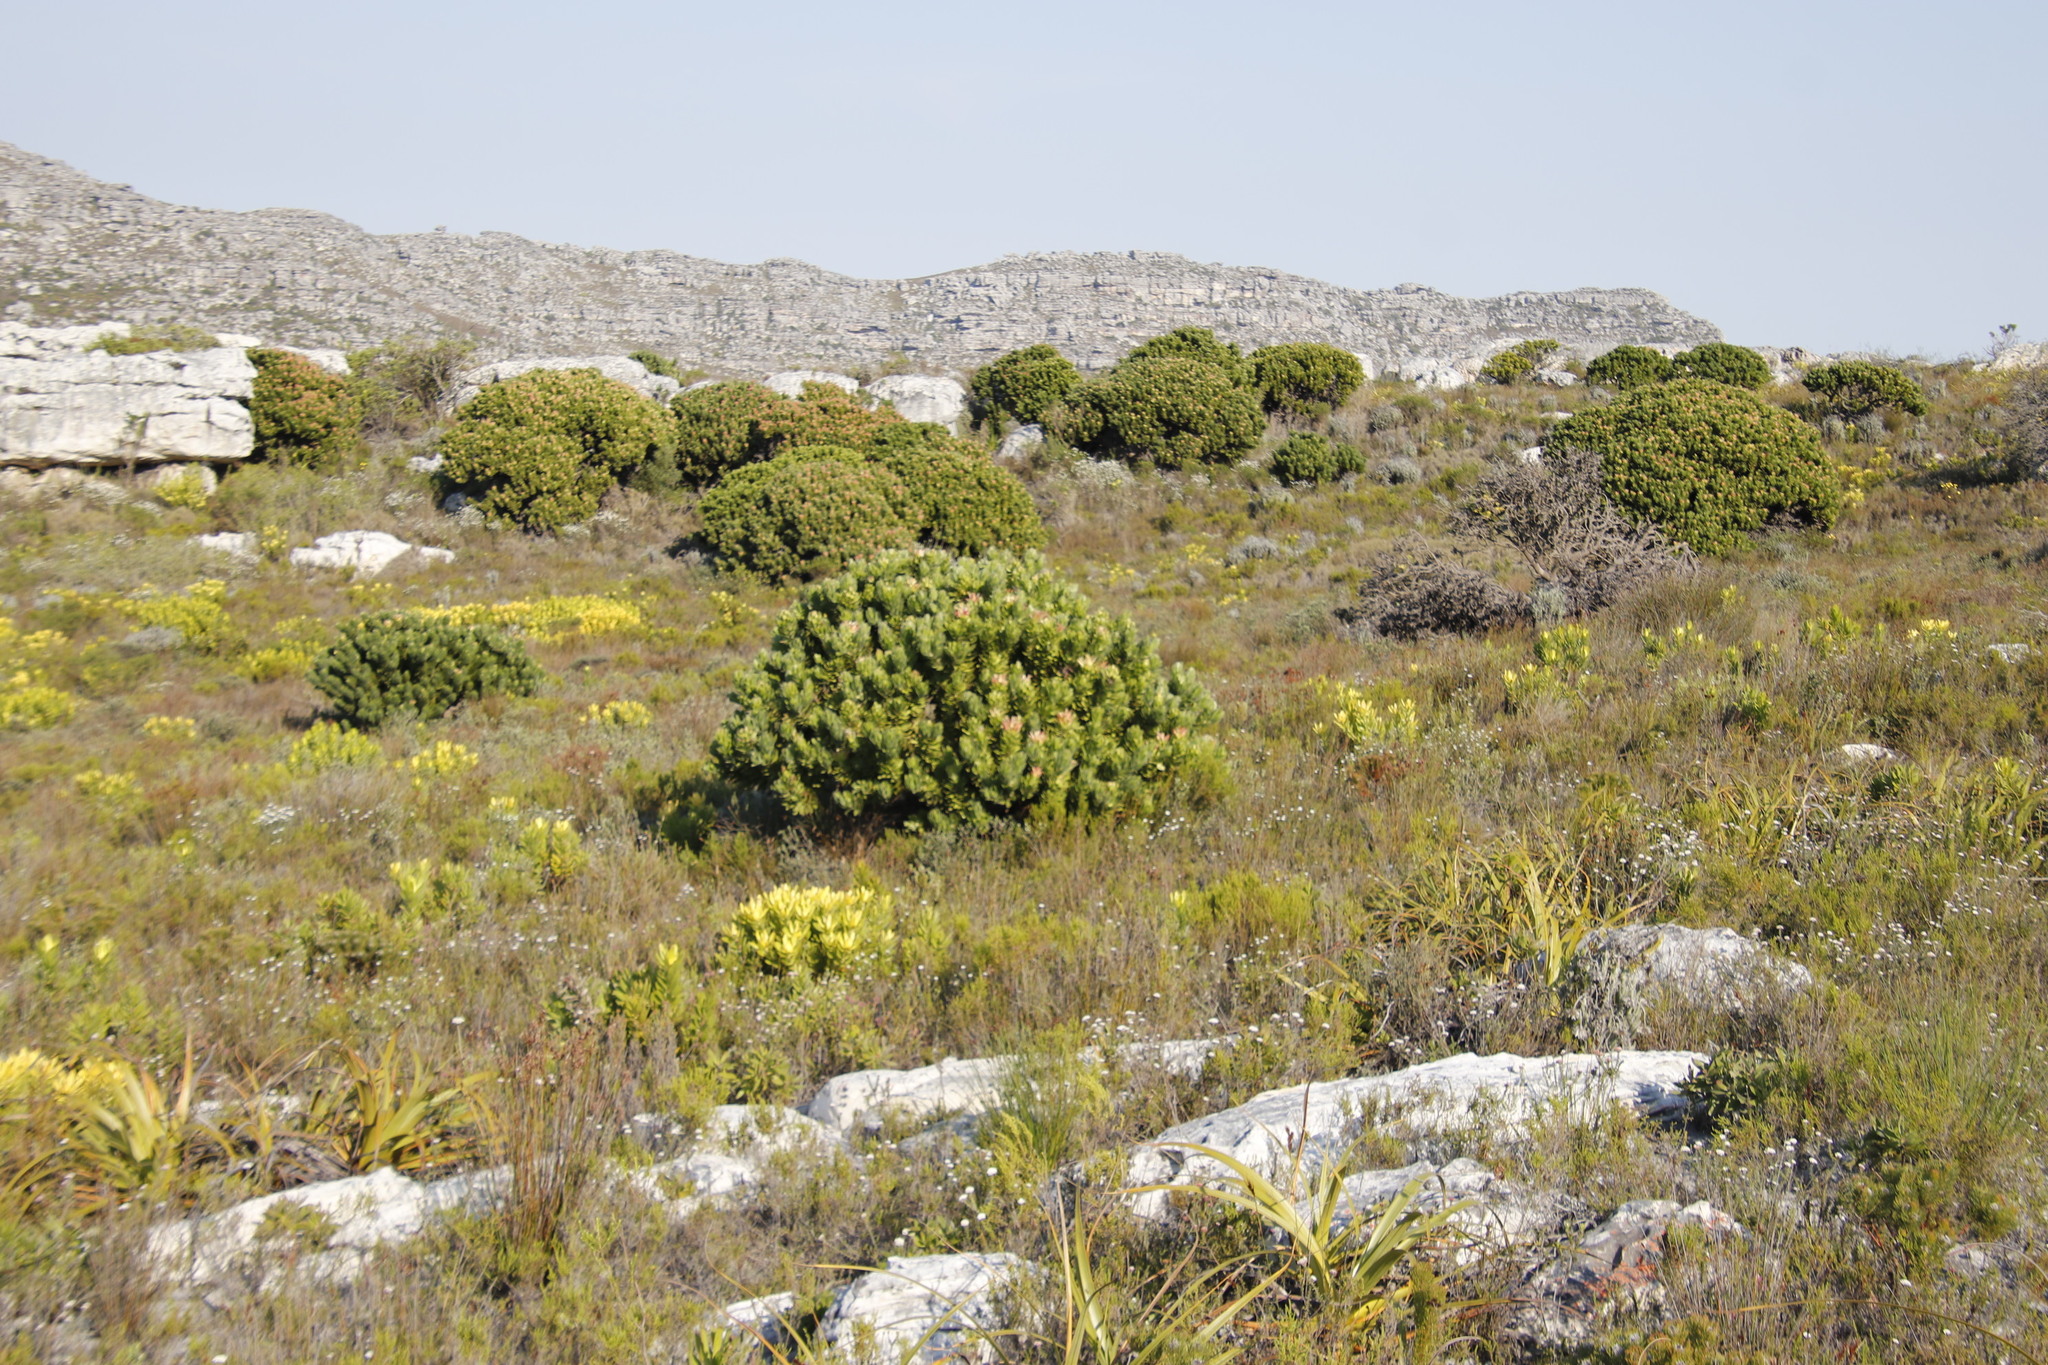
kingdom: Plantae
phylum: Tracheophyta
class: Magnoliopsida
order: Proteales
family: Proteaceae
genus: Mimetes
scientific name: Mimetes fimbriifolius
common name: Fringed bottlebrush
